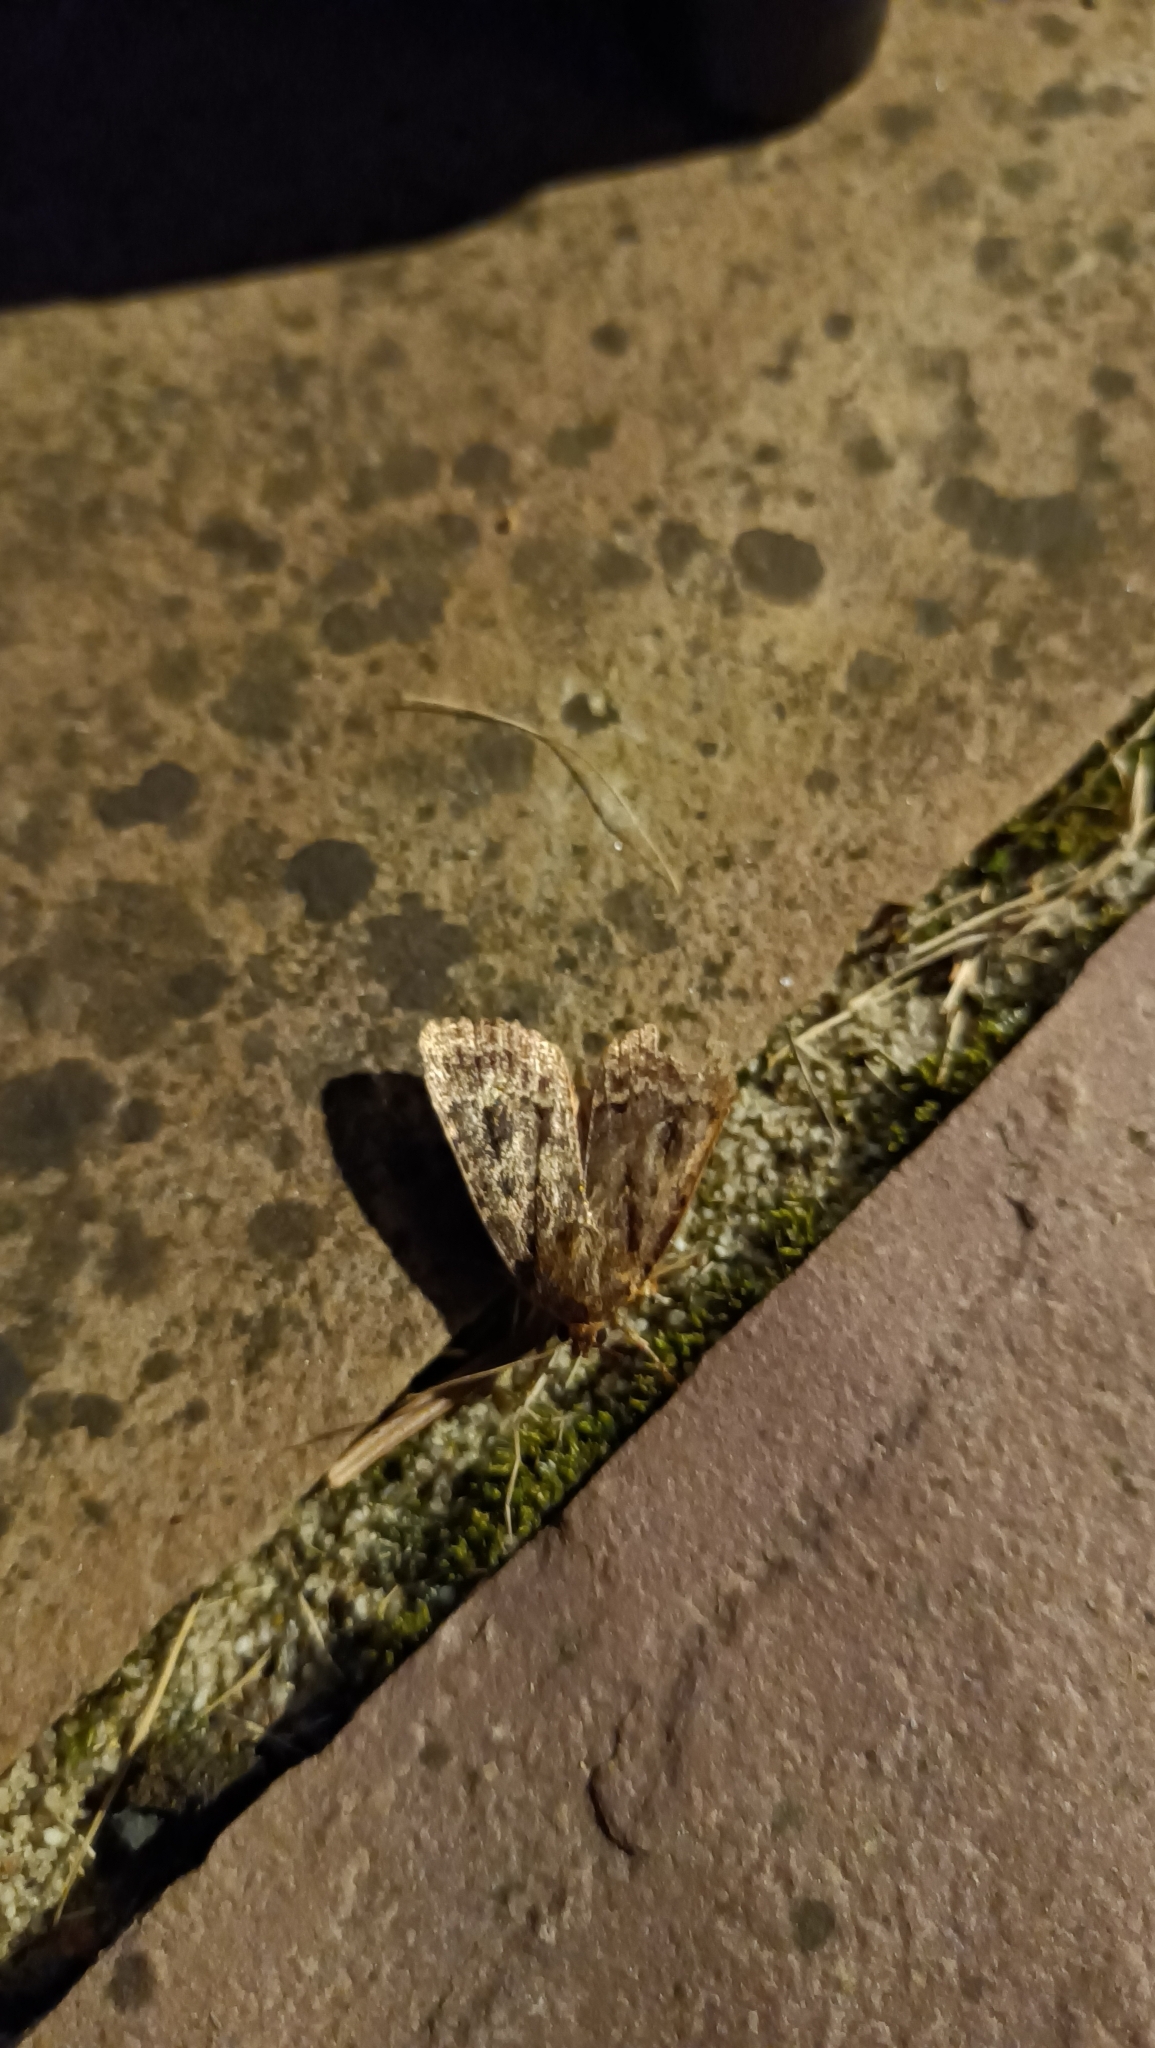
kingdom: Animalia
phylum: Arthropoda
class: Insecta
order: Lepidoptera
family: Noctuidae
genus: Amphipyra
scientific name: Amphipyra
